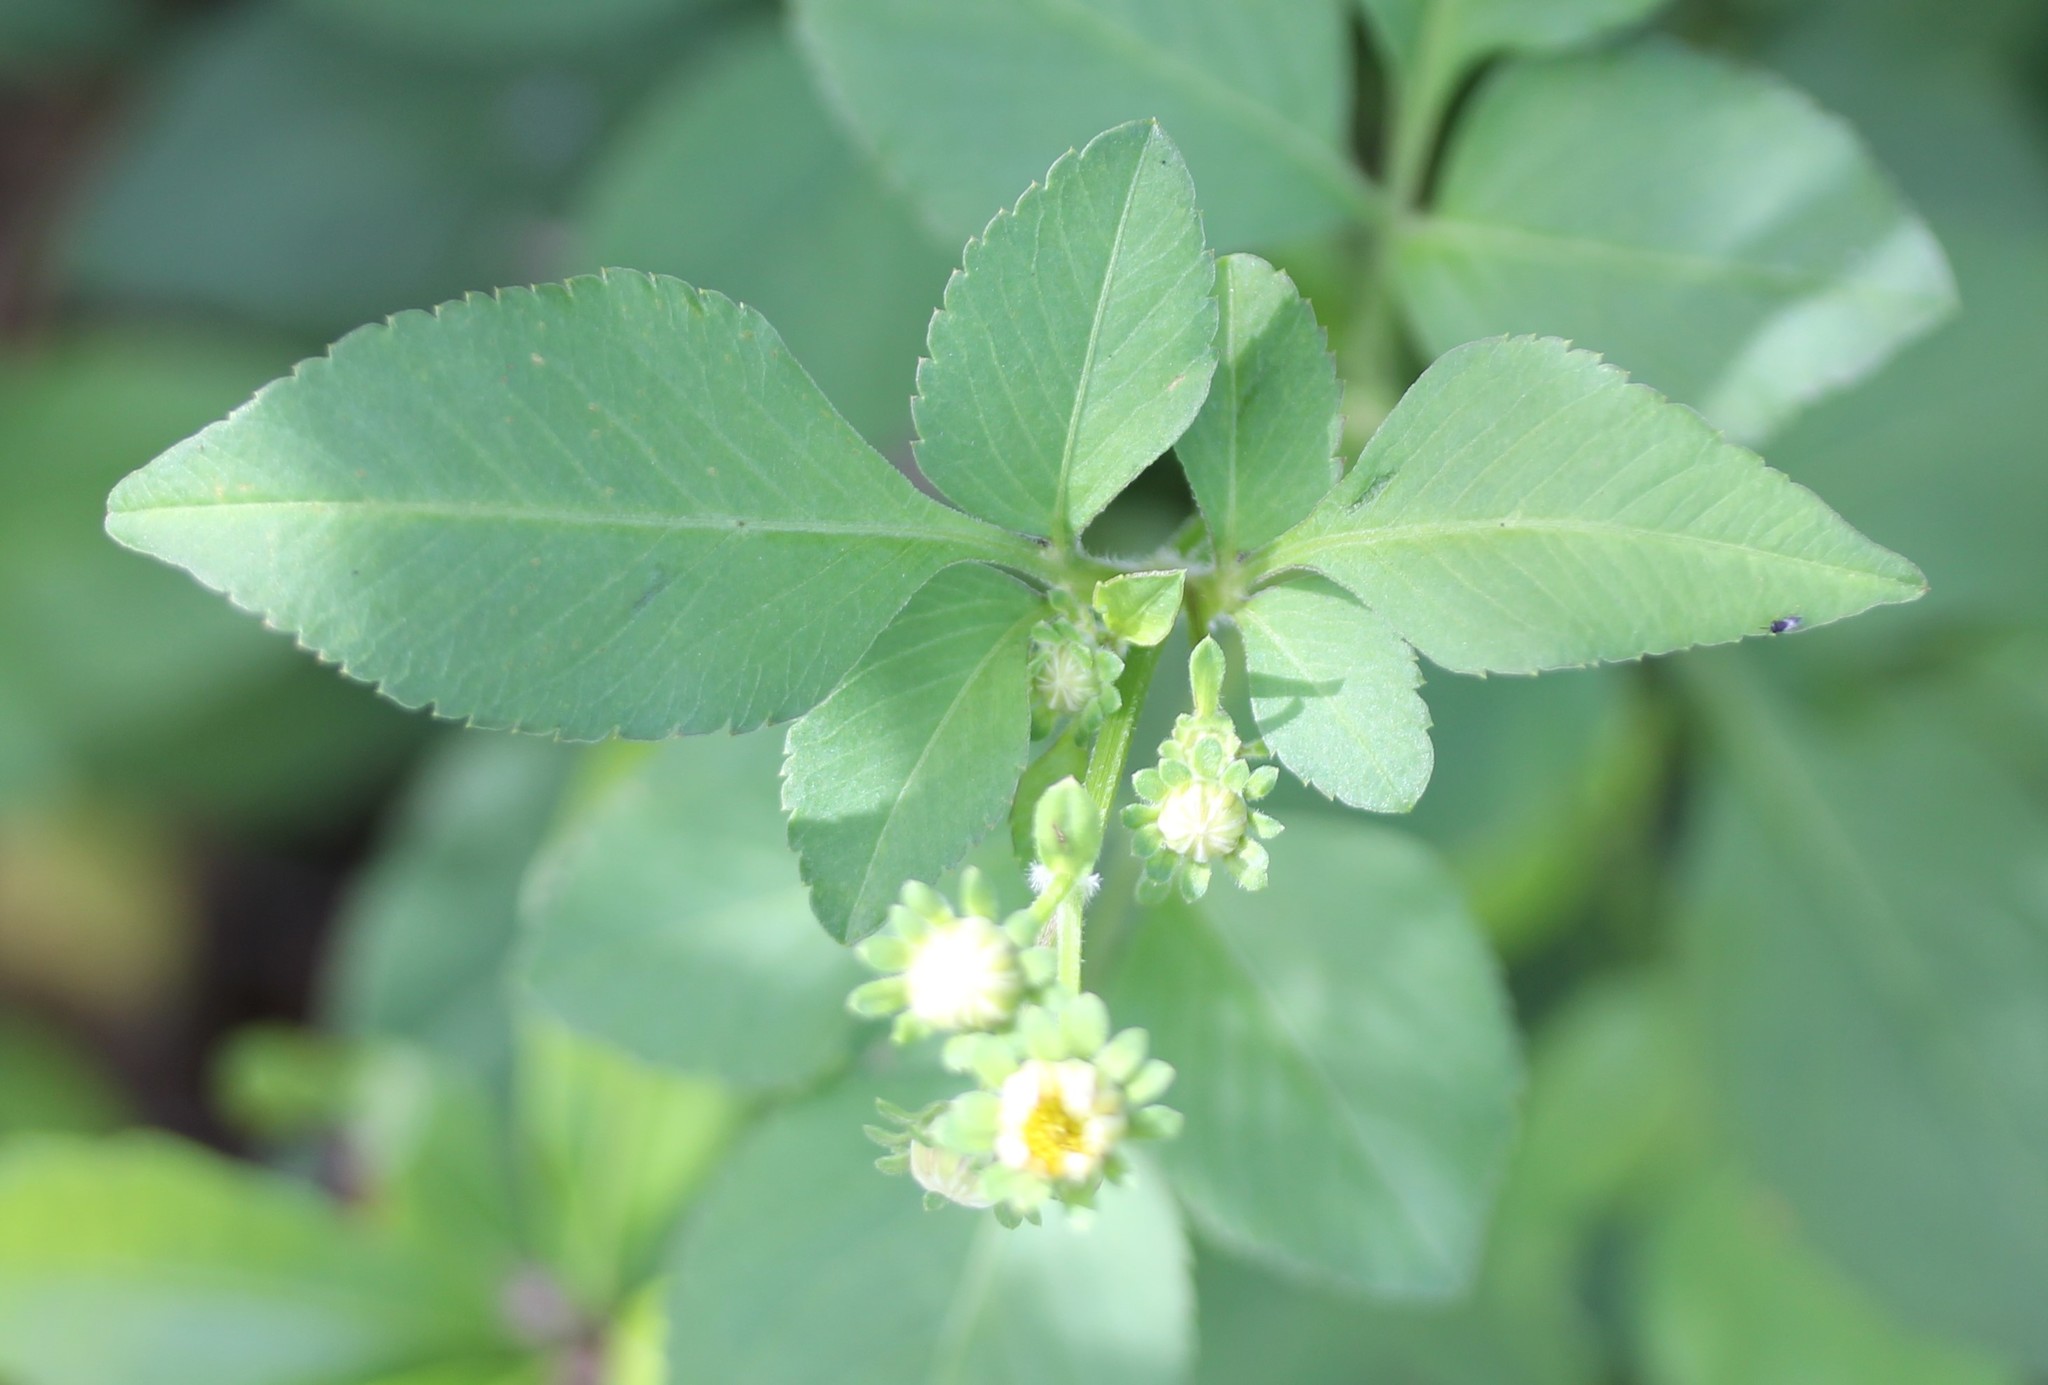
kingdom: Plantae
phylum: Tracheophyta
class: Magnoliopsida
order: Asterales
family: Asteraceae
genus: Bidens
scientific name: Bidens alba
